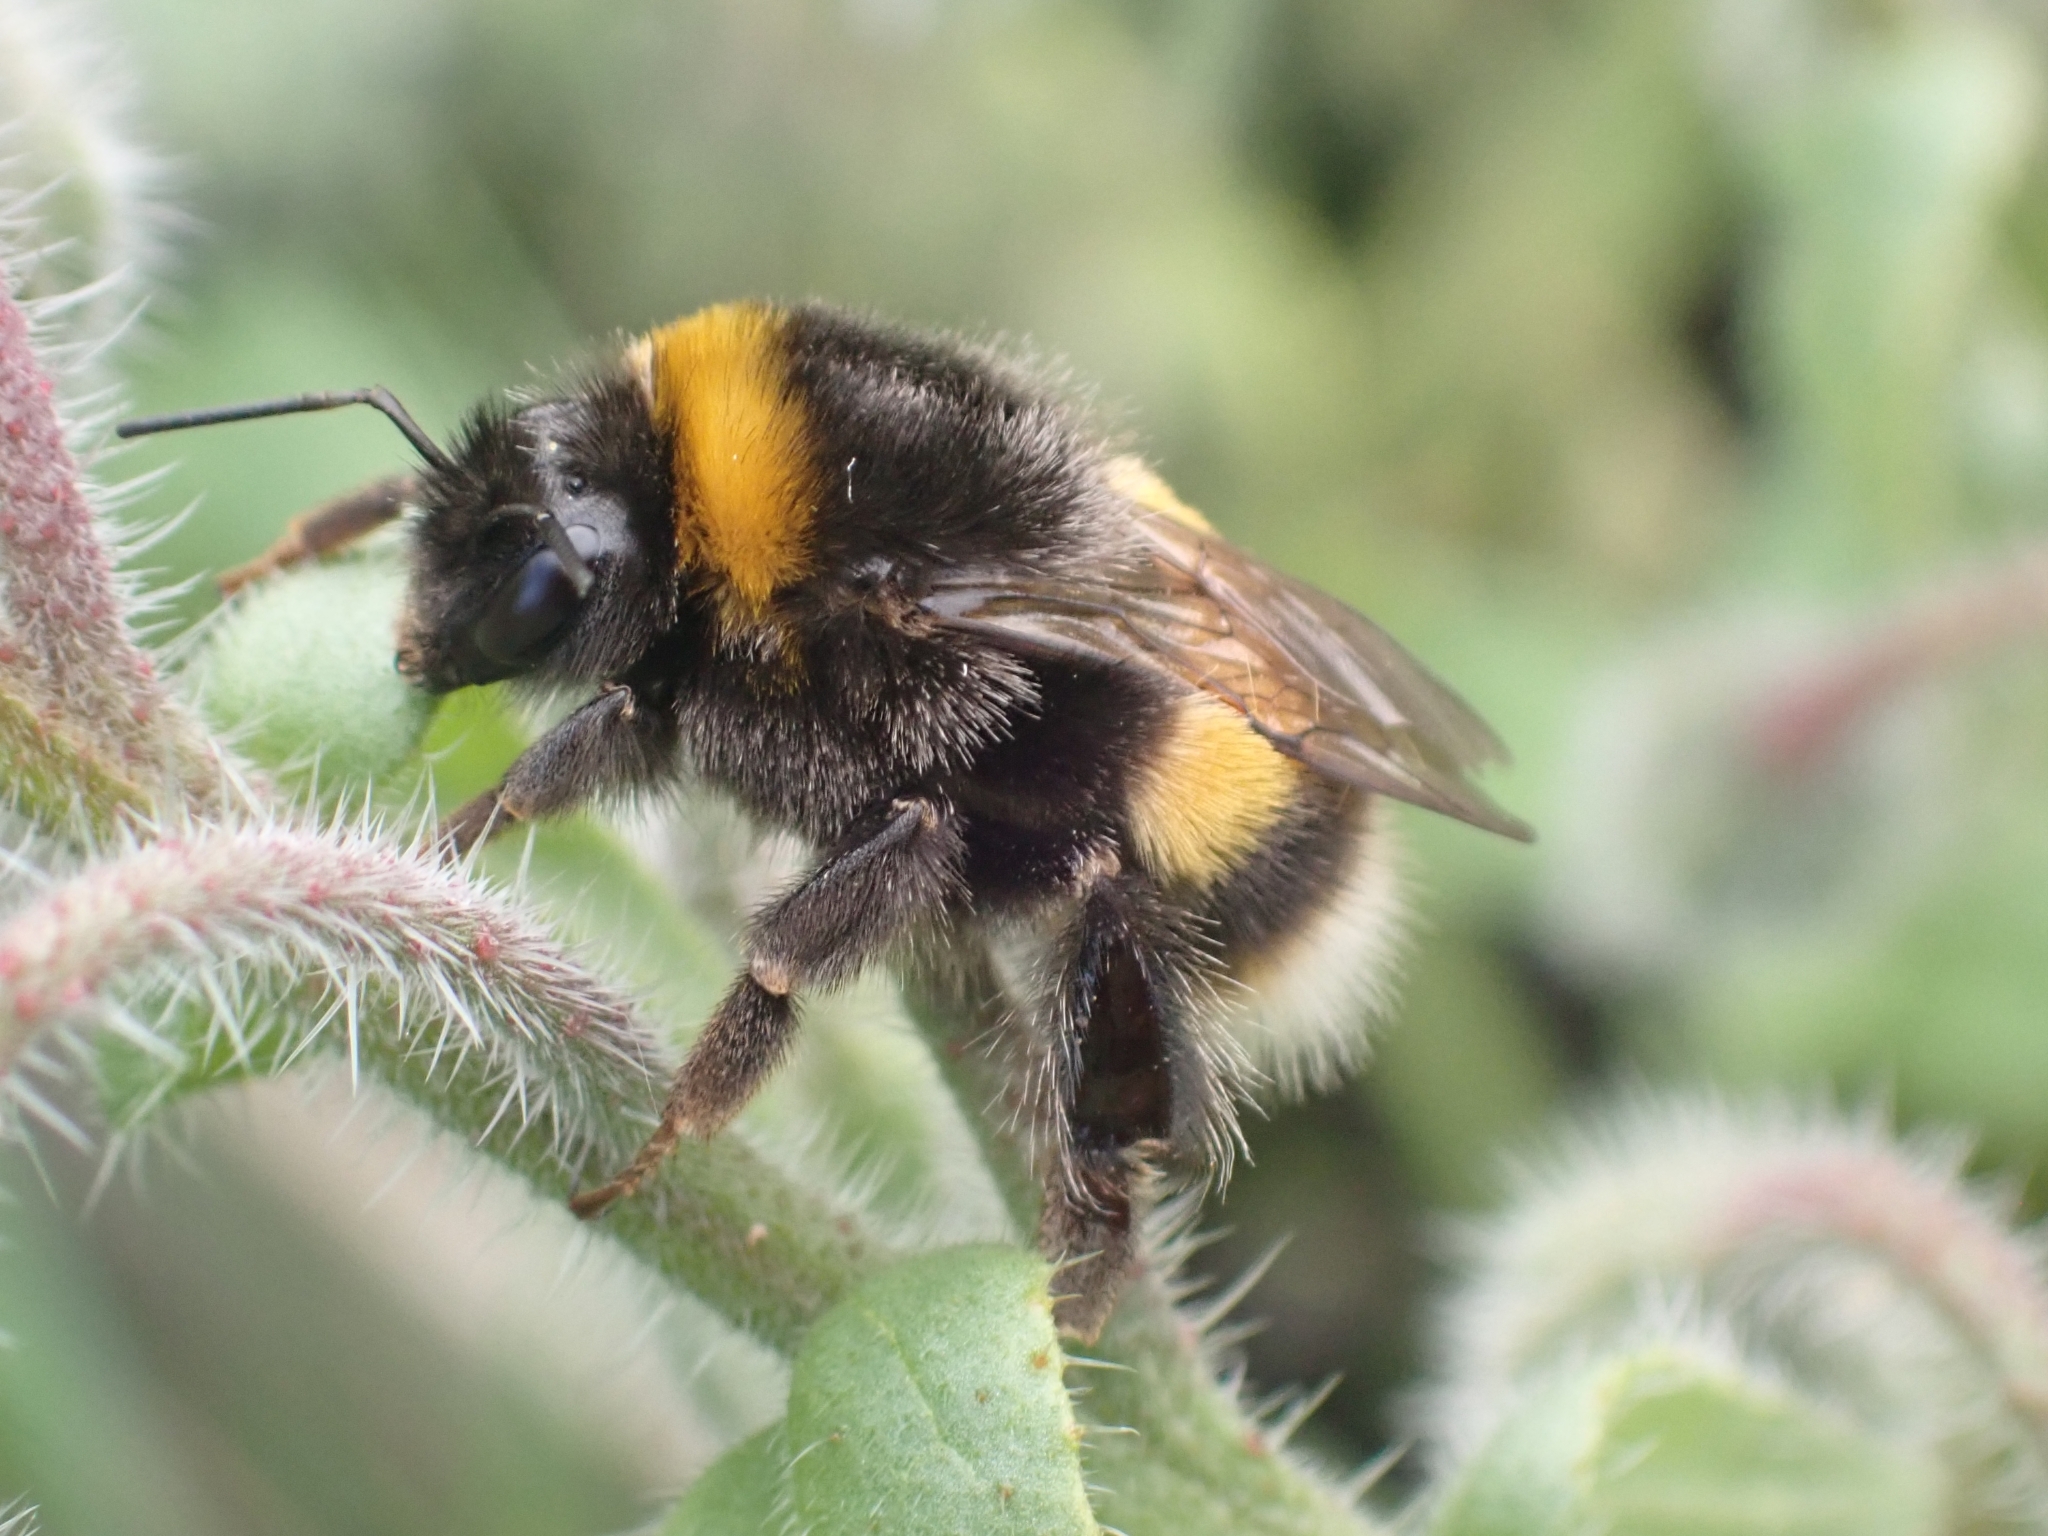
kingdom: Animalia
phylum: Arthropoda
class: Insecta
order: Hymenoptera
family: Apidae
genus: Bombus
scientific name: Bombus terrestris
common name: Buff-tailed bumblebee
